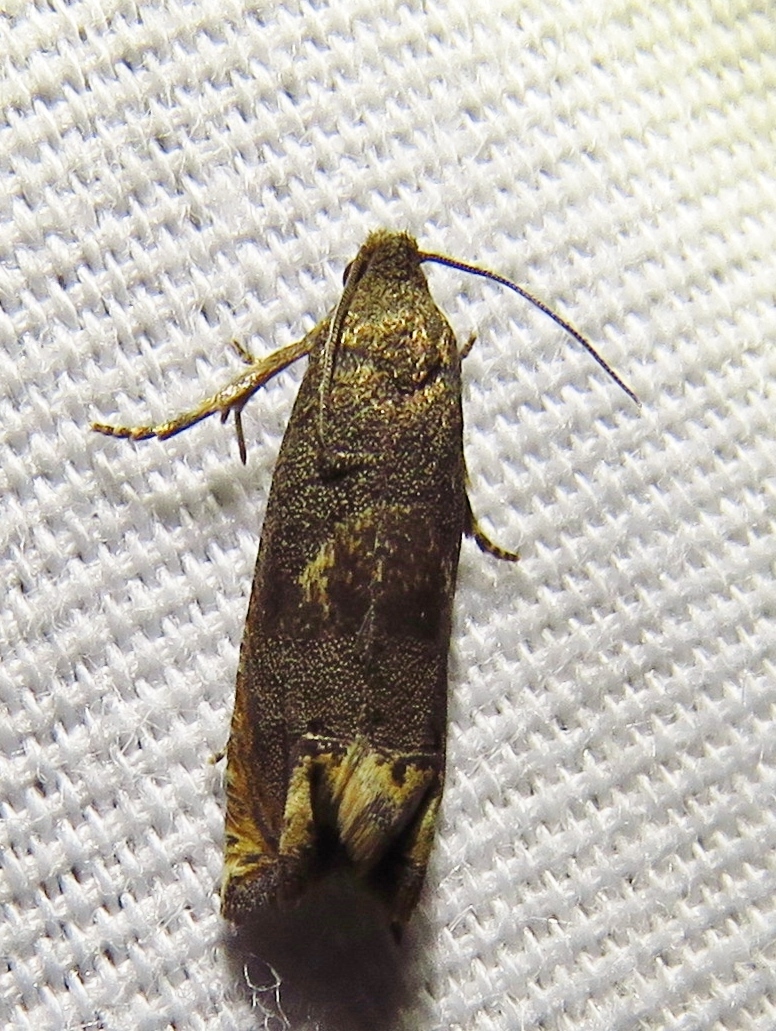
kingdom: Animalia
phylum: Arthropoda
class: Insecta
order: Lepidoptera
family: Tortricidae
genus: Epiblema
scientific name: Epiblema strenuana
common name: Ragweed borer moth
